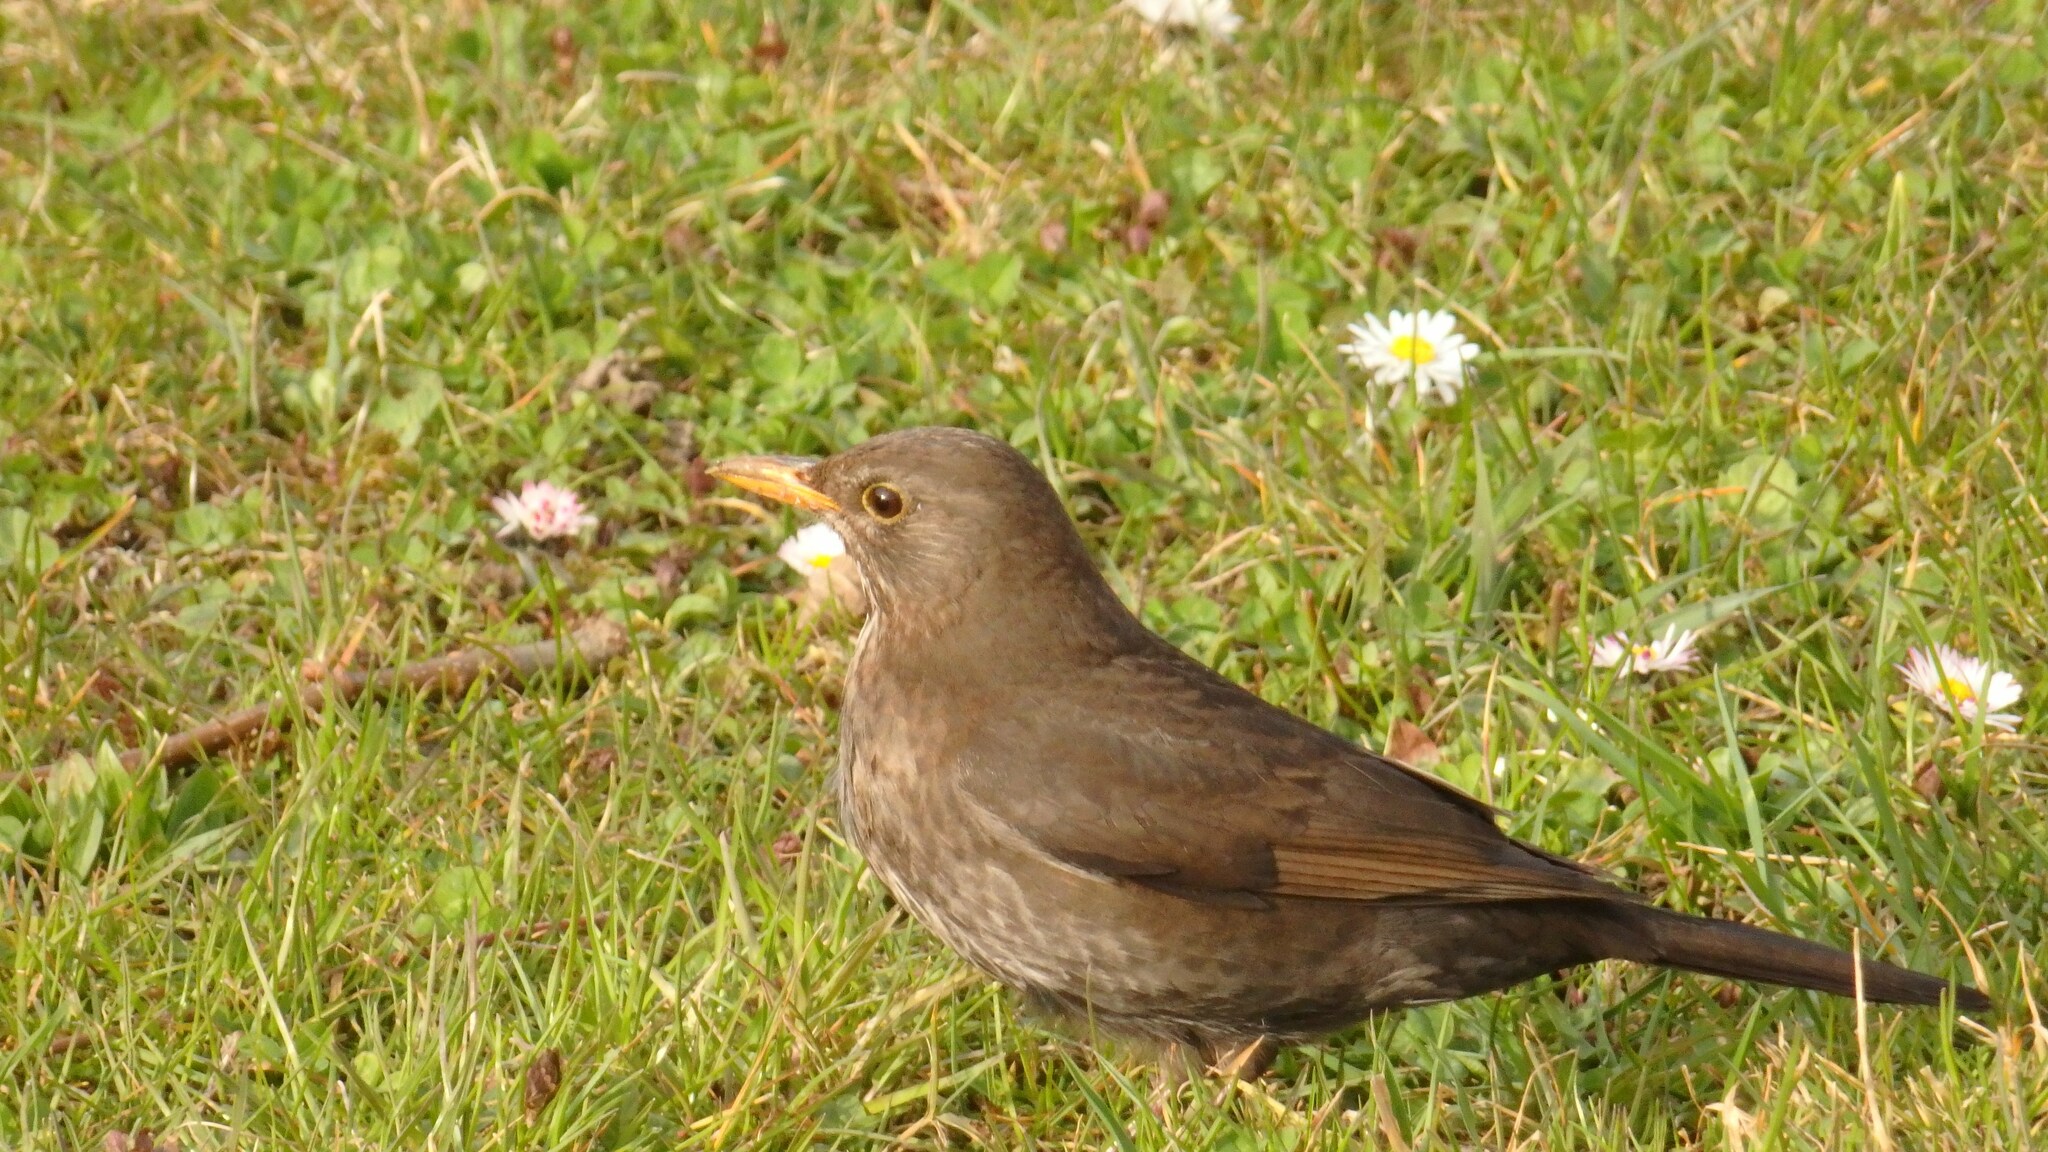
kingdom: Animalia
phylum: Chordata
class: Aves
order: Passeriformes
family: Turdidae
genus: Turdus
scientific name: Turdus merula
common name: Common blackbird
